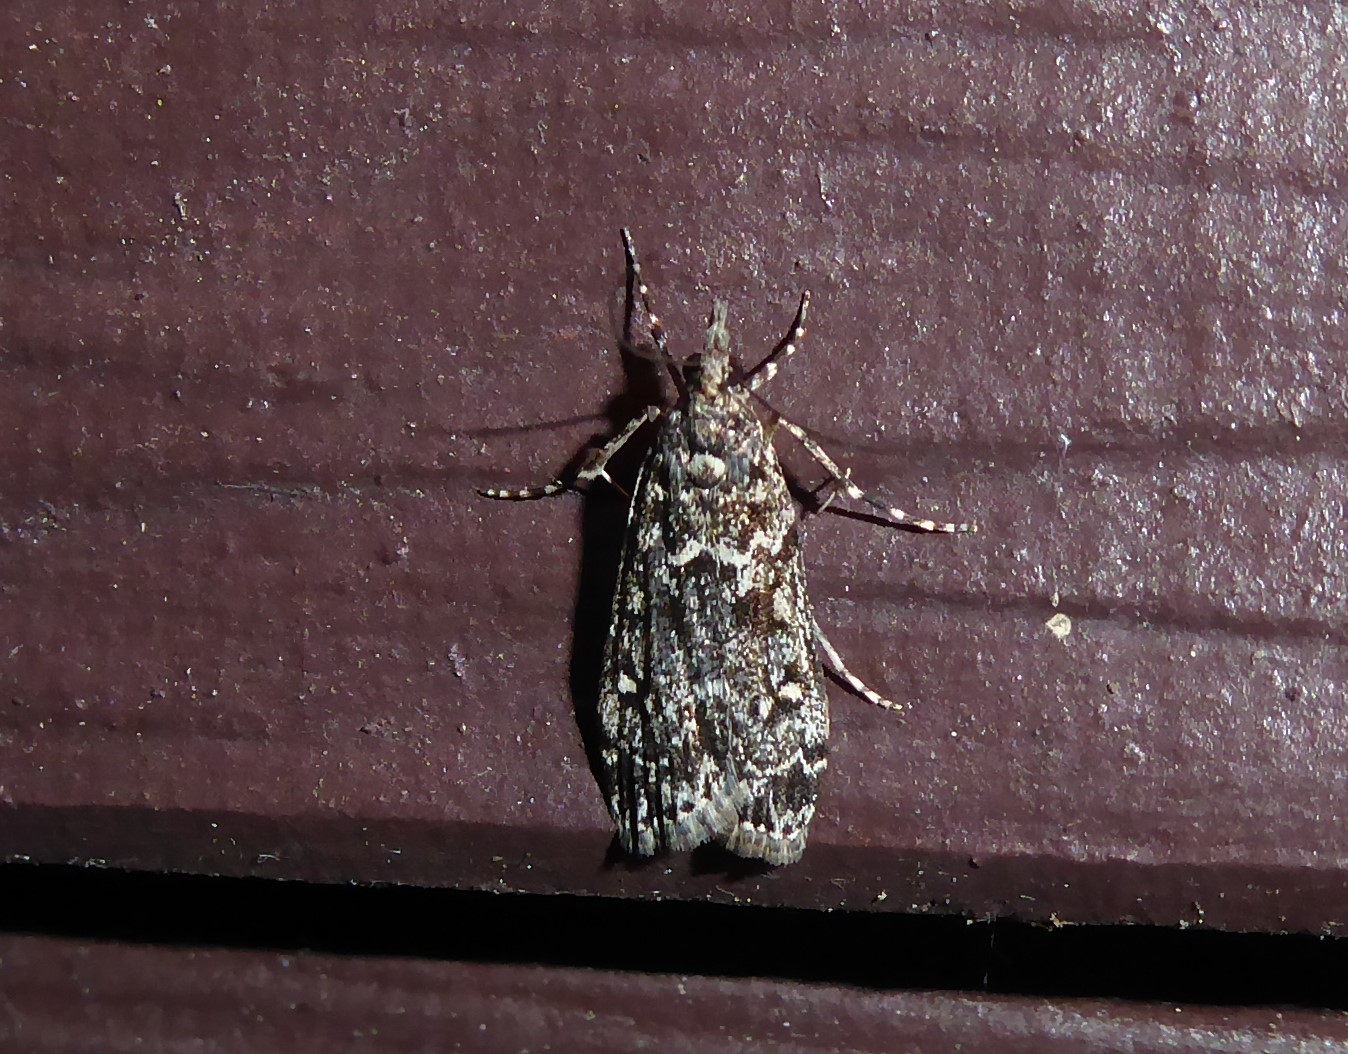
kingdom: Animalia
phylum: Arthropoda
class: Insecta
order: Lepidoptera
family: Crambidae
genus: Eudonia
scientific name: Eudonia philerga
